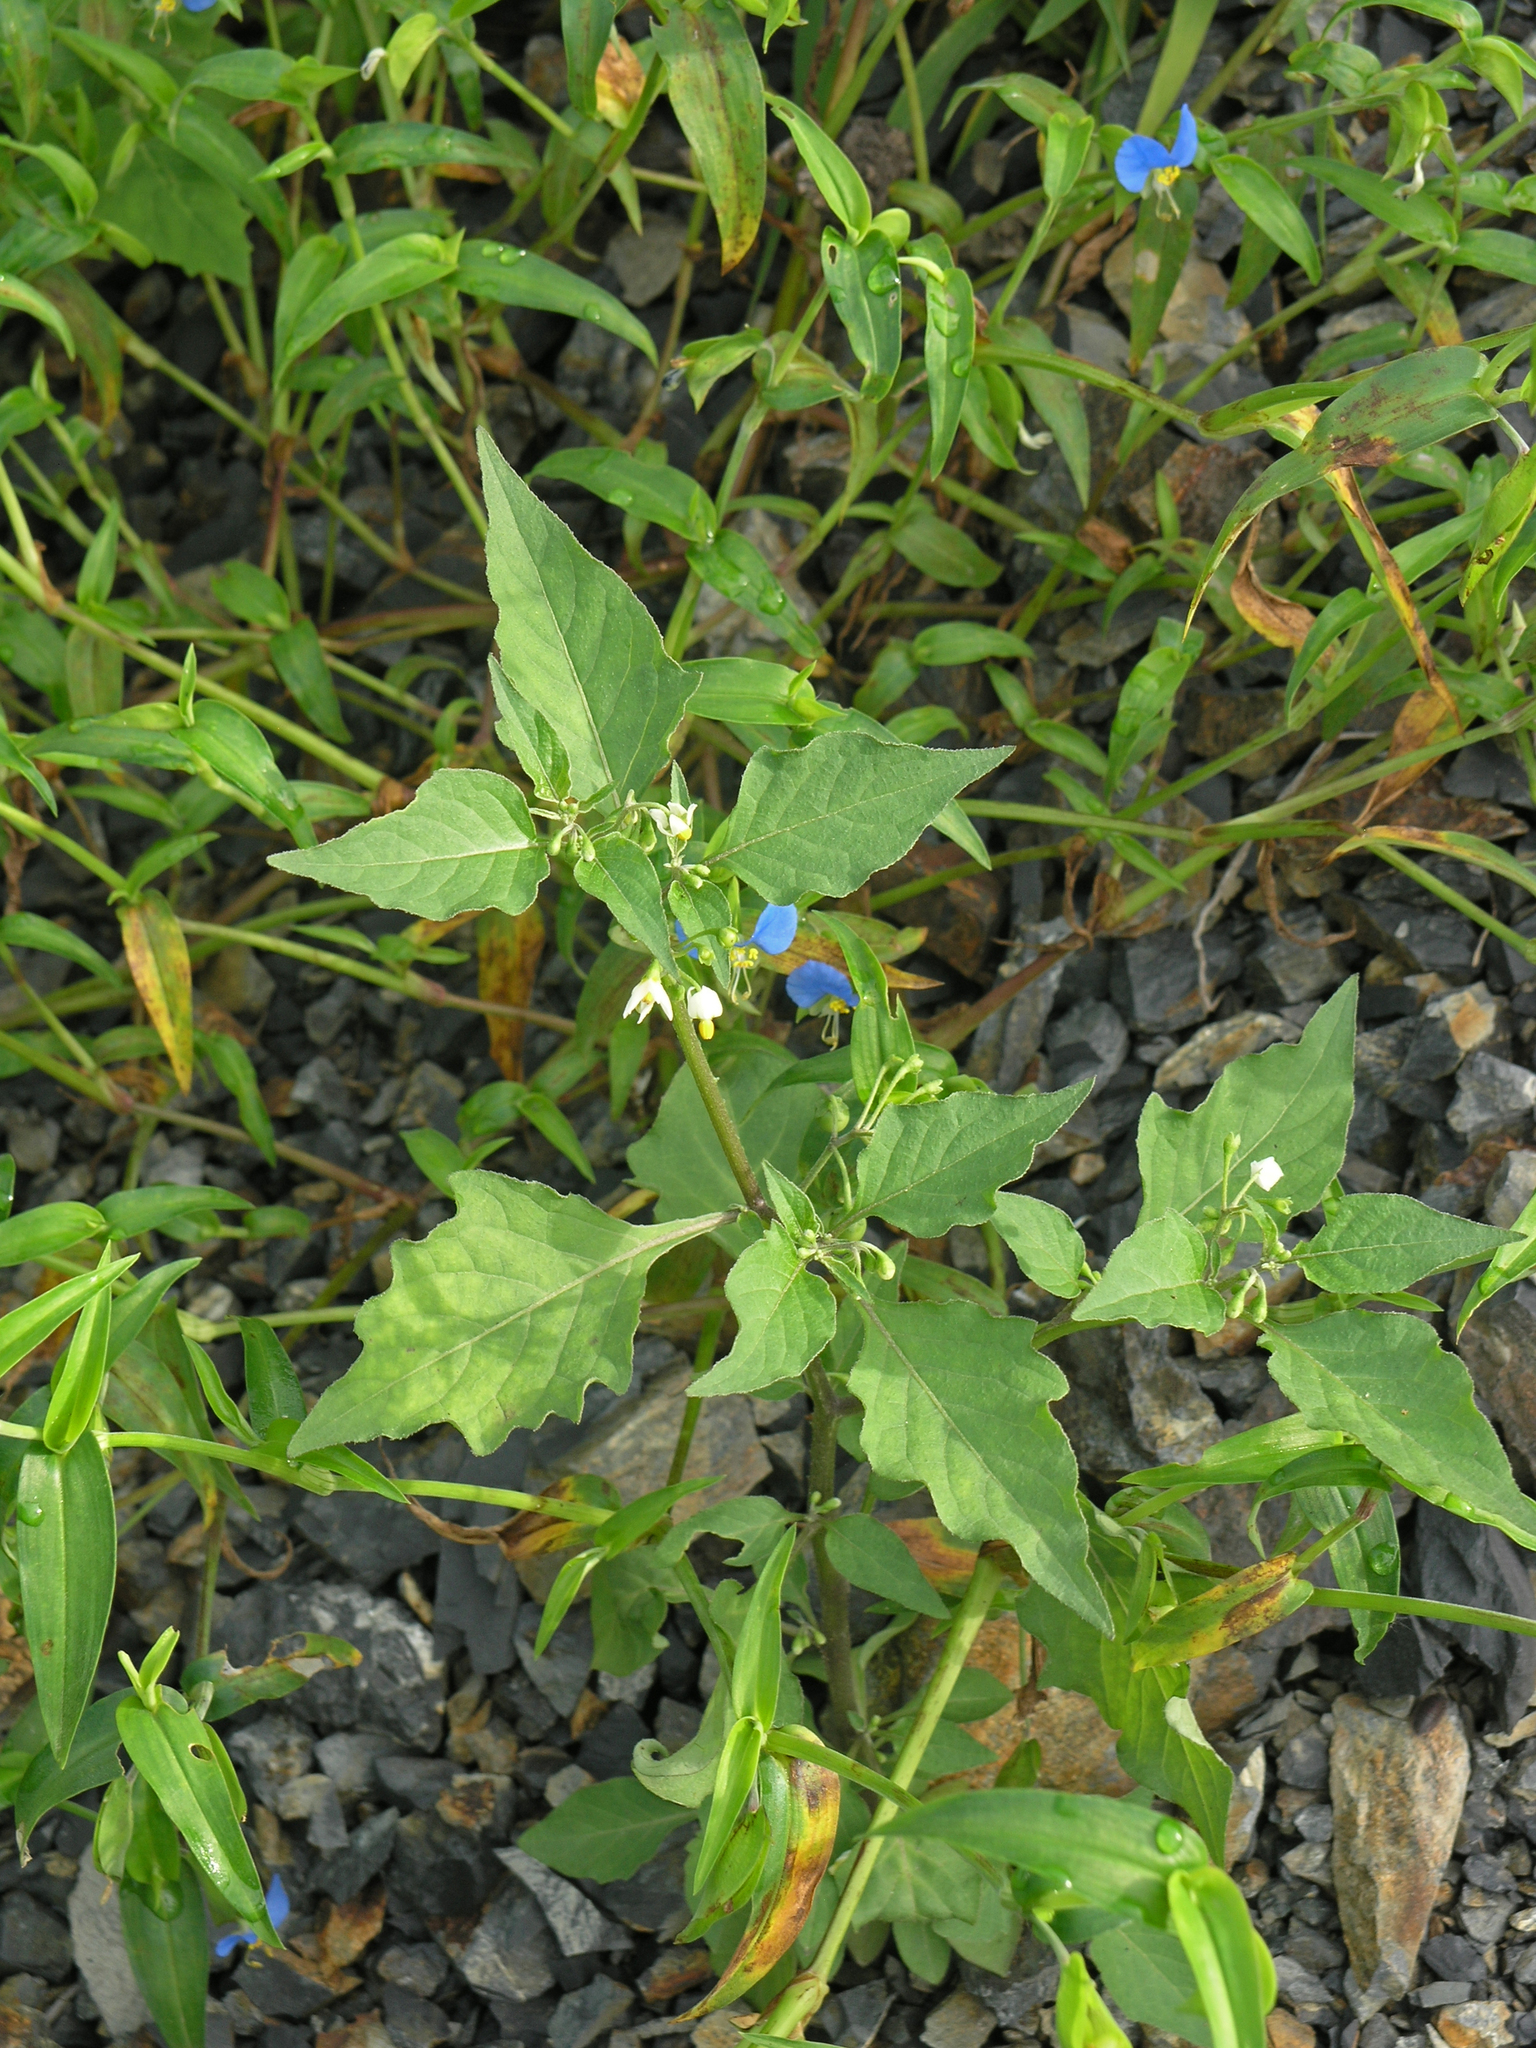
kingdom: Plantae
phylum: Tracheophyta
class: Magnoliopsida
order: Solanales
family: Solanaceae
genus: Solanum
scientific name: Solanum nigrum
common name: Black nightshade
